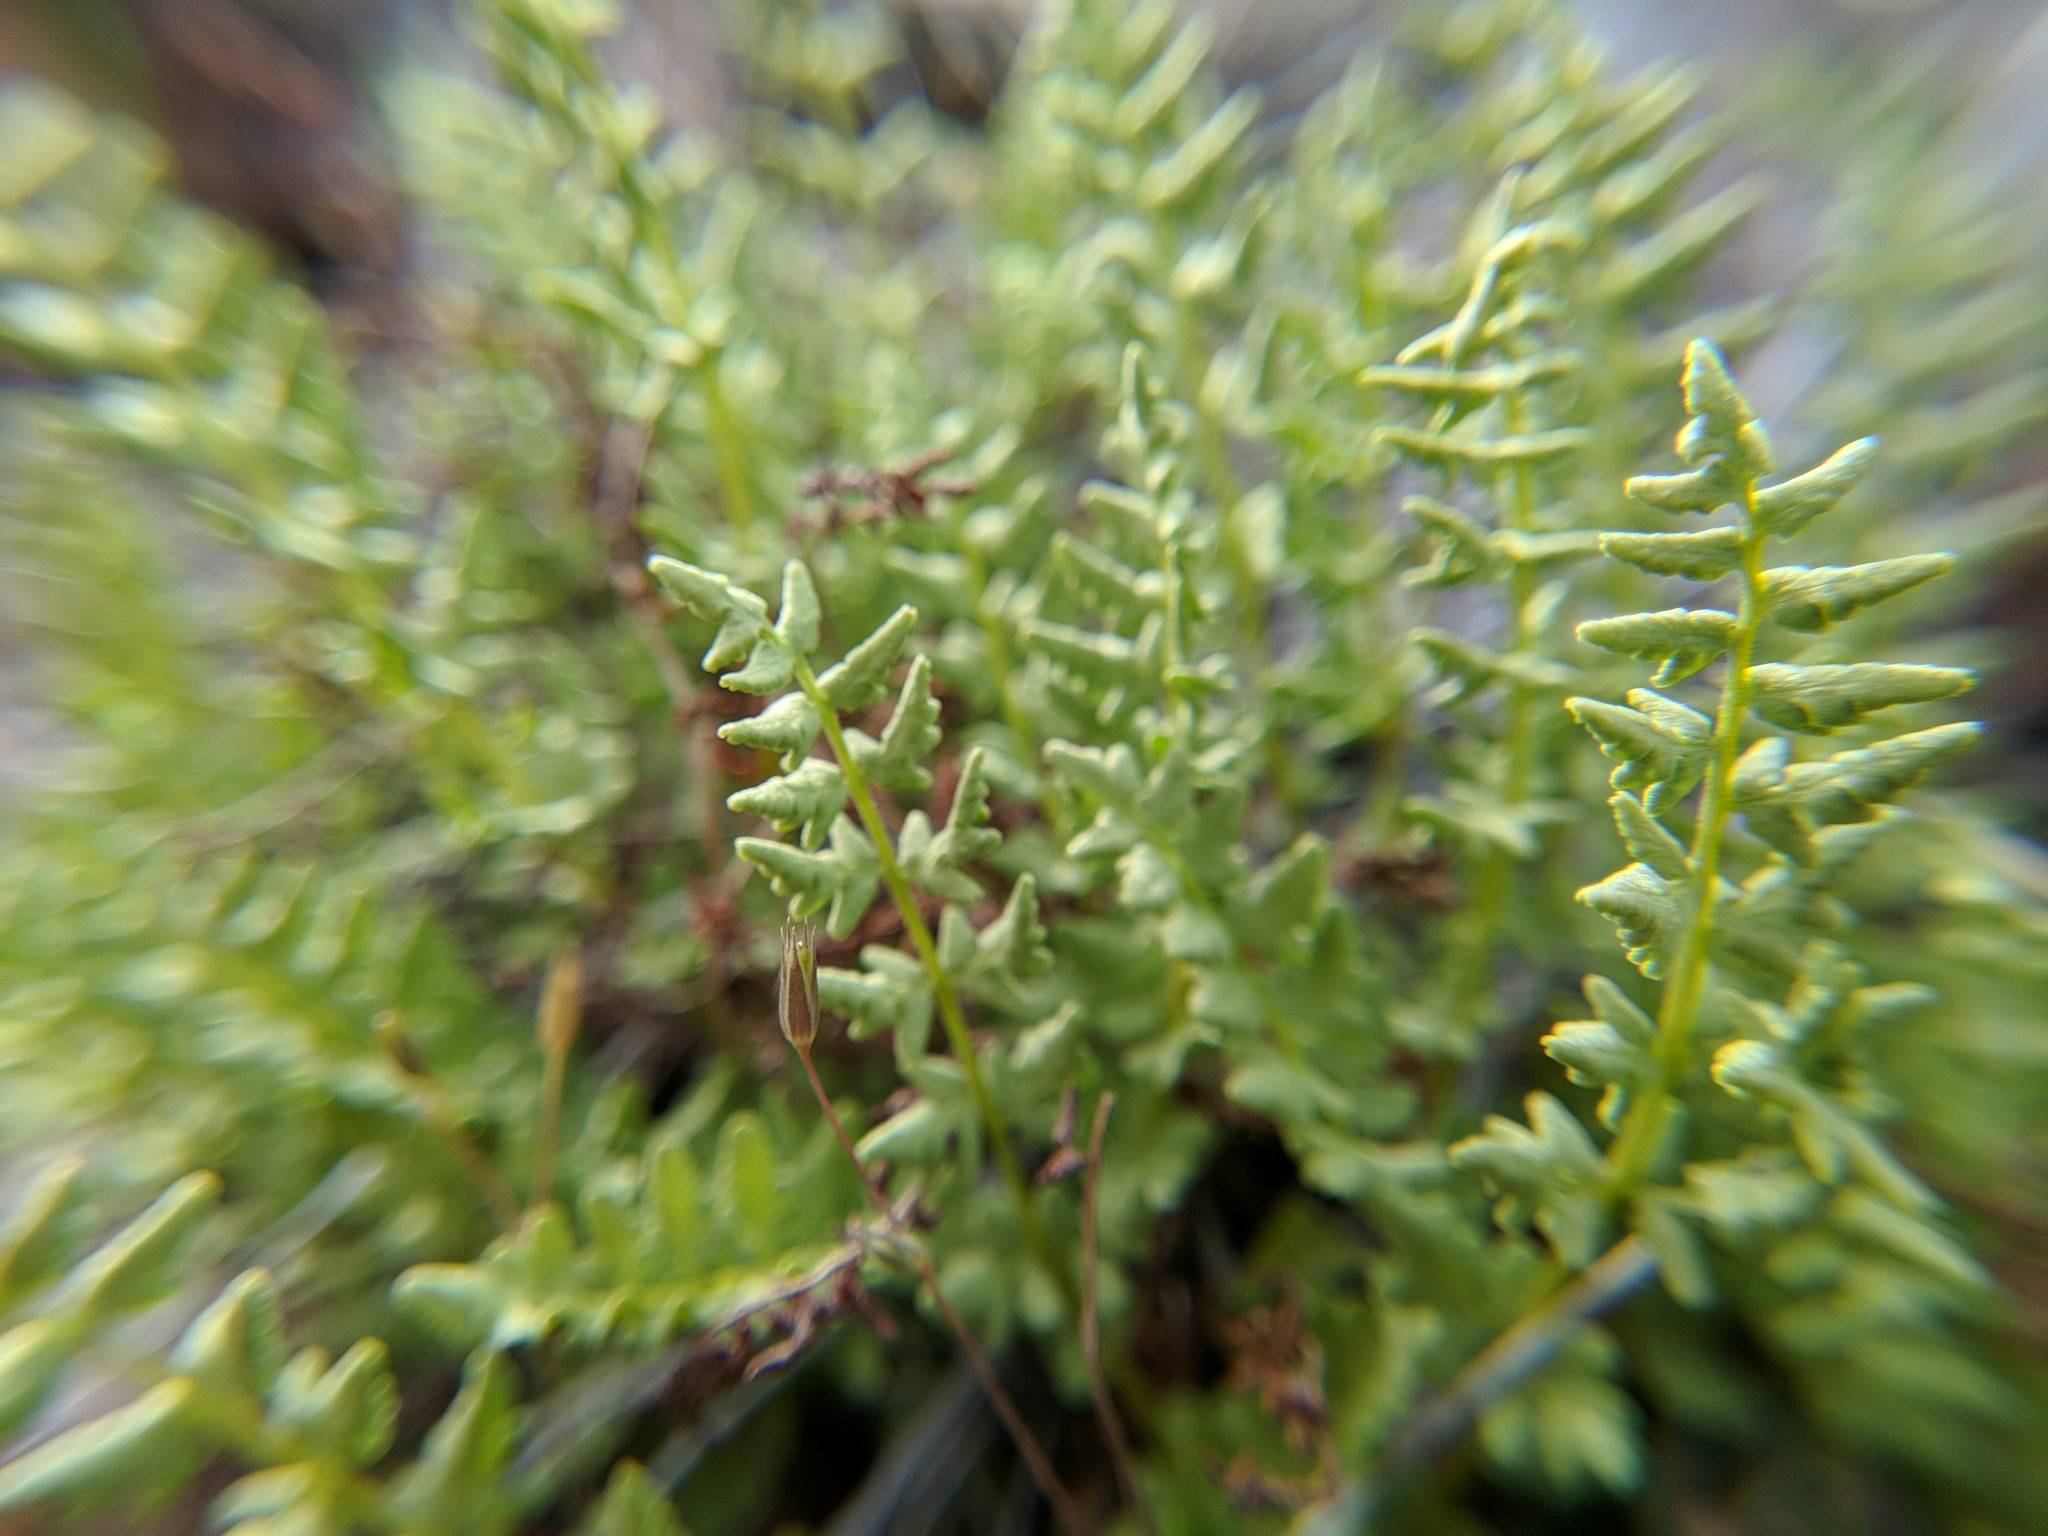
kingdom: Plantae
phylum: Tracheophyta
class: Polypodiopsida
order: Polypodiales
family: Woodsiaceae
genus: Physematium
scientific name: Physematium oreganum
